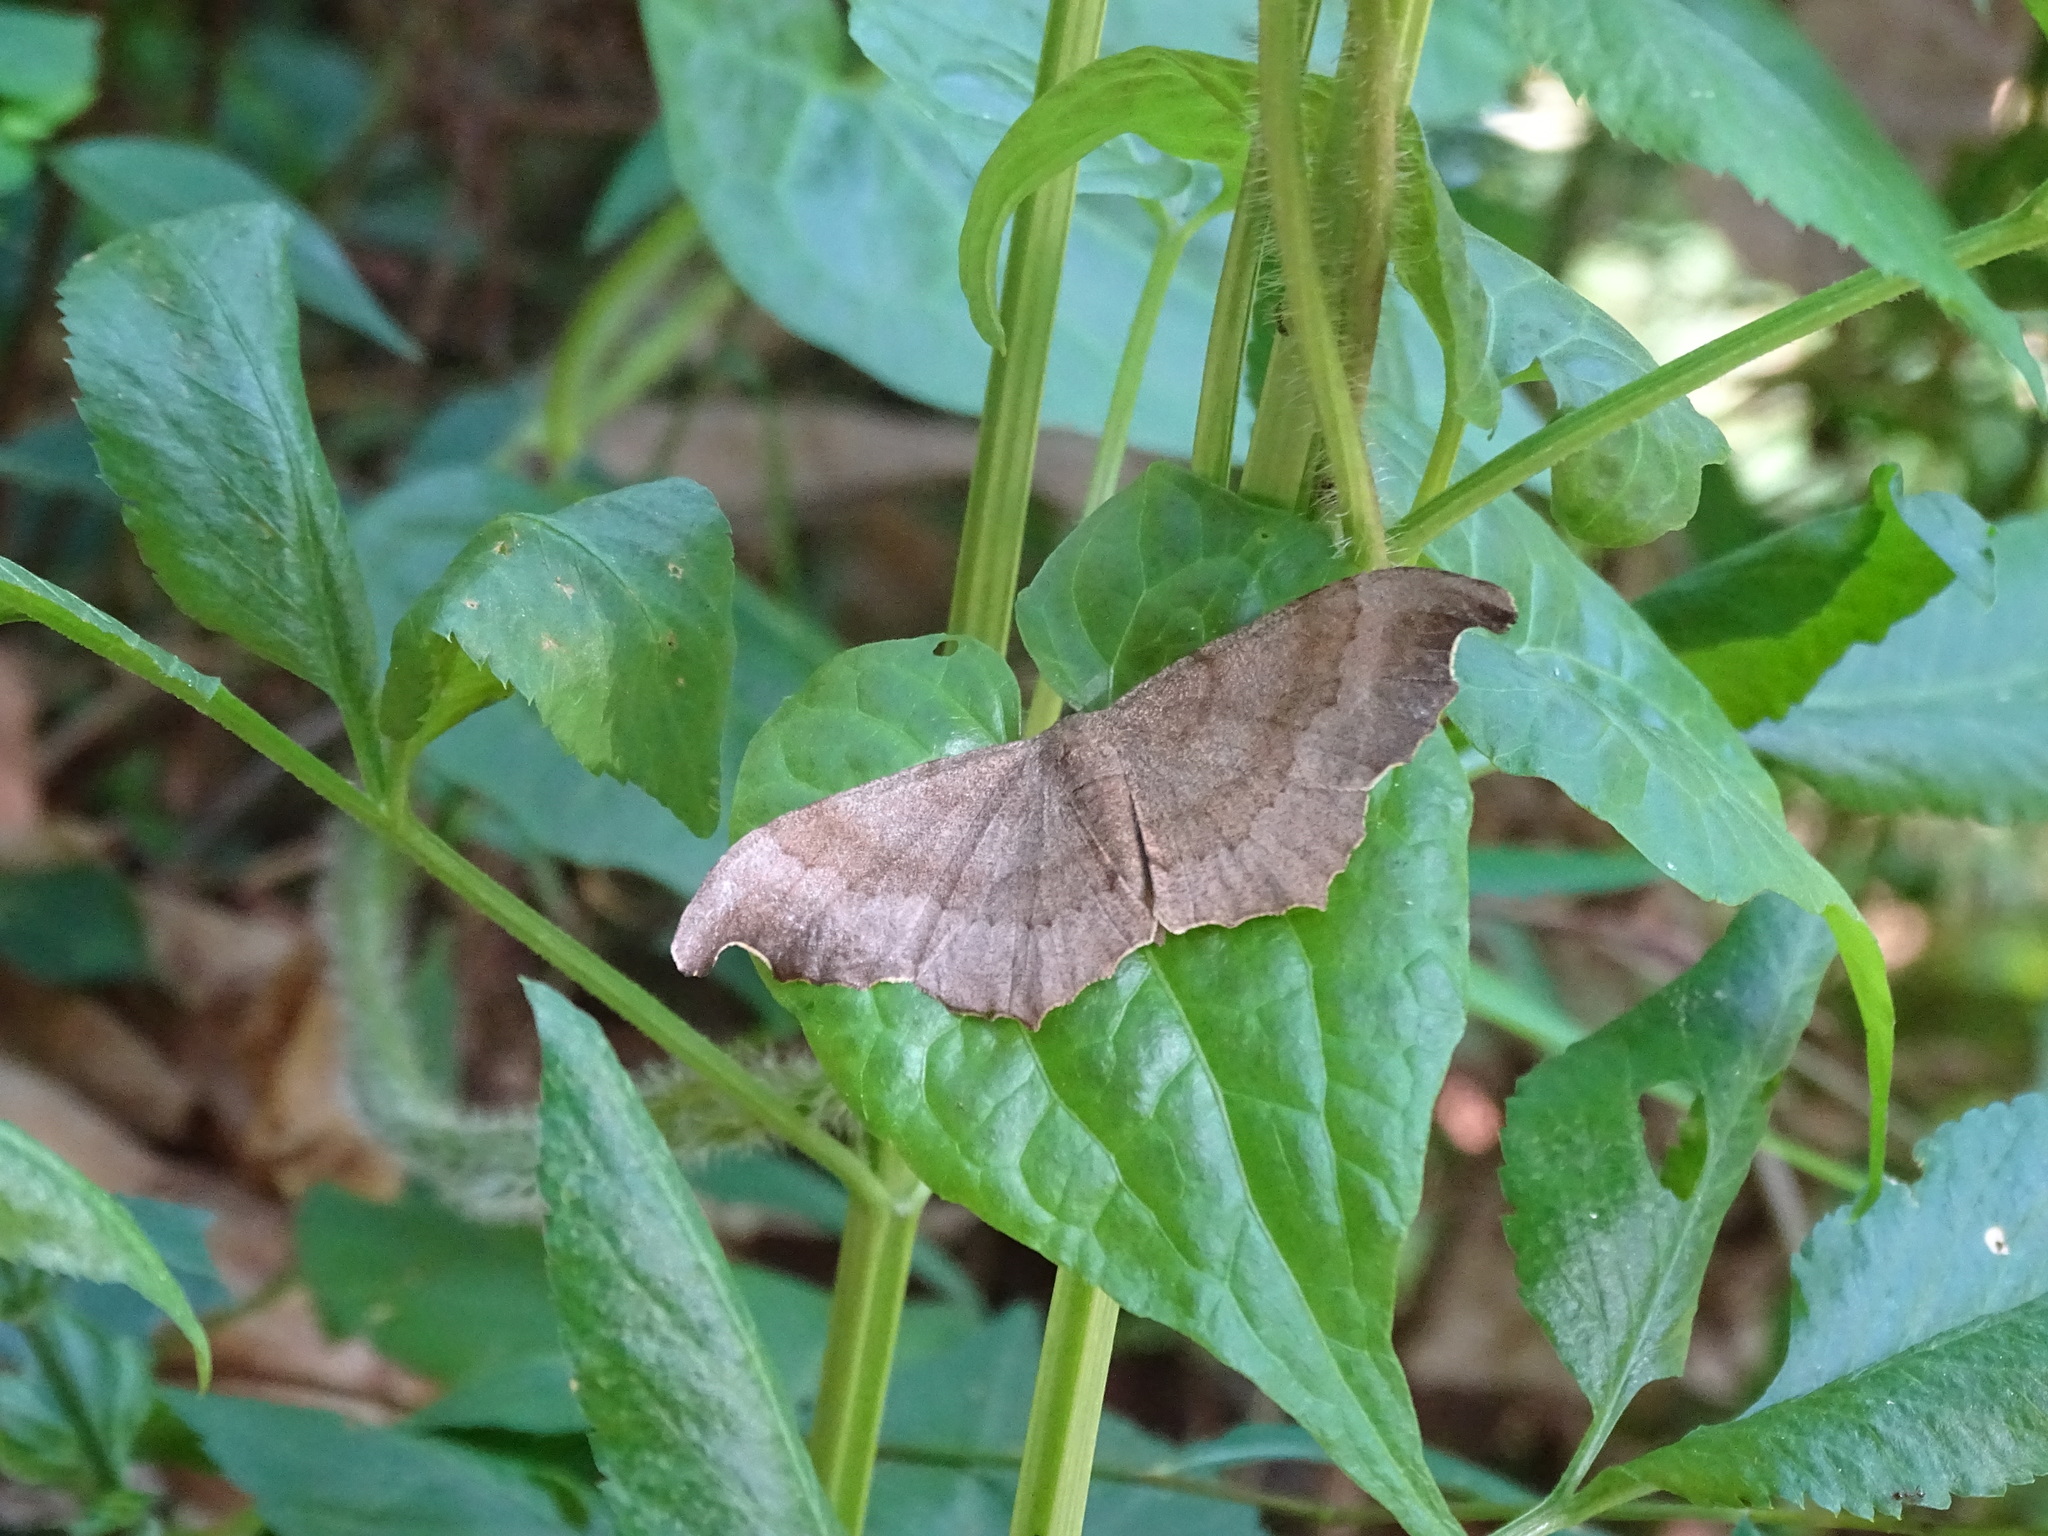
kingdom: Animalia
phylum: Arthropoda
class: Insecta
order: Lepidoptera
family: Geometridae
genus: Hyposidra
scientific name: Hyposidra talaca
